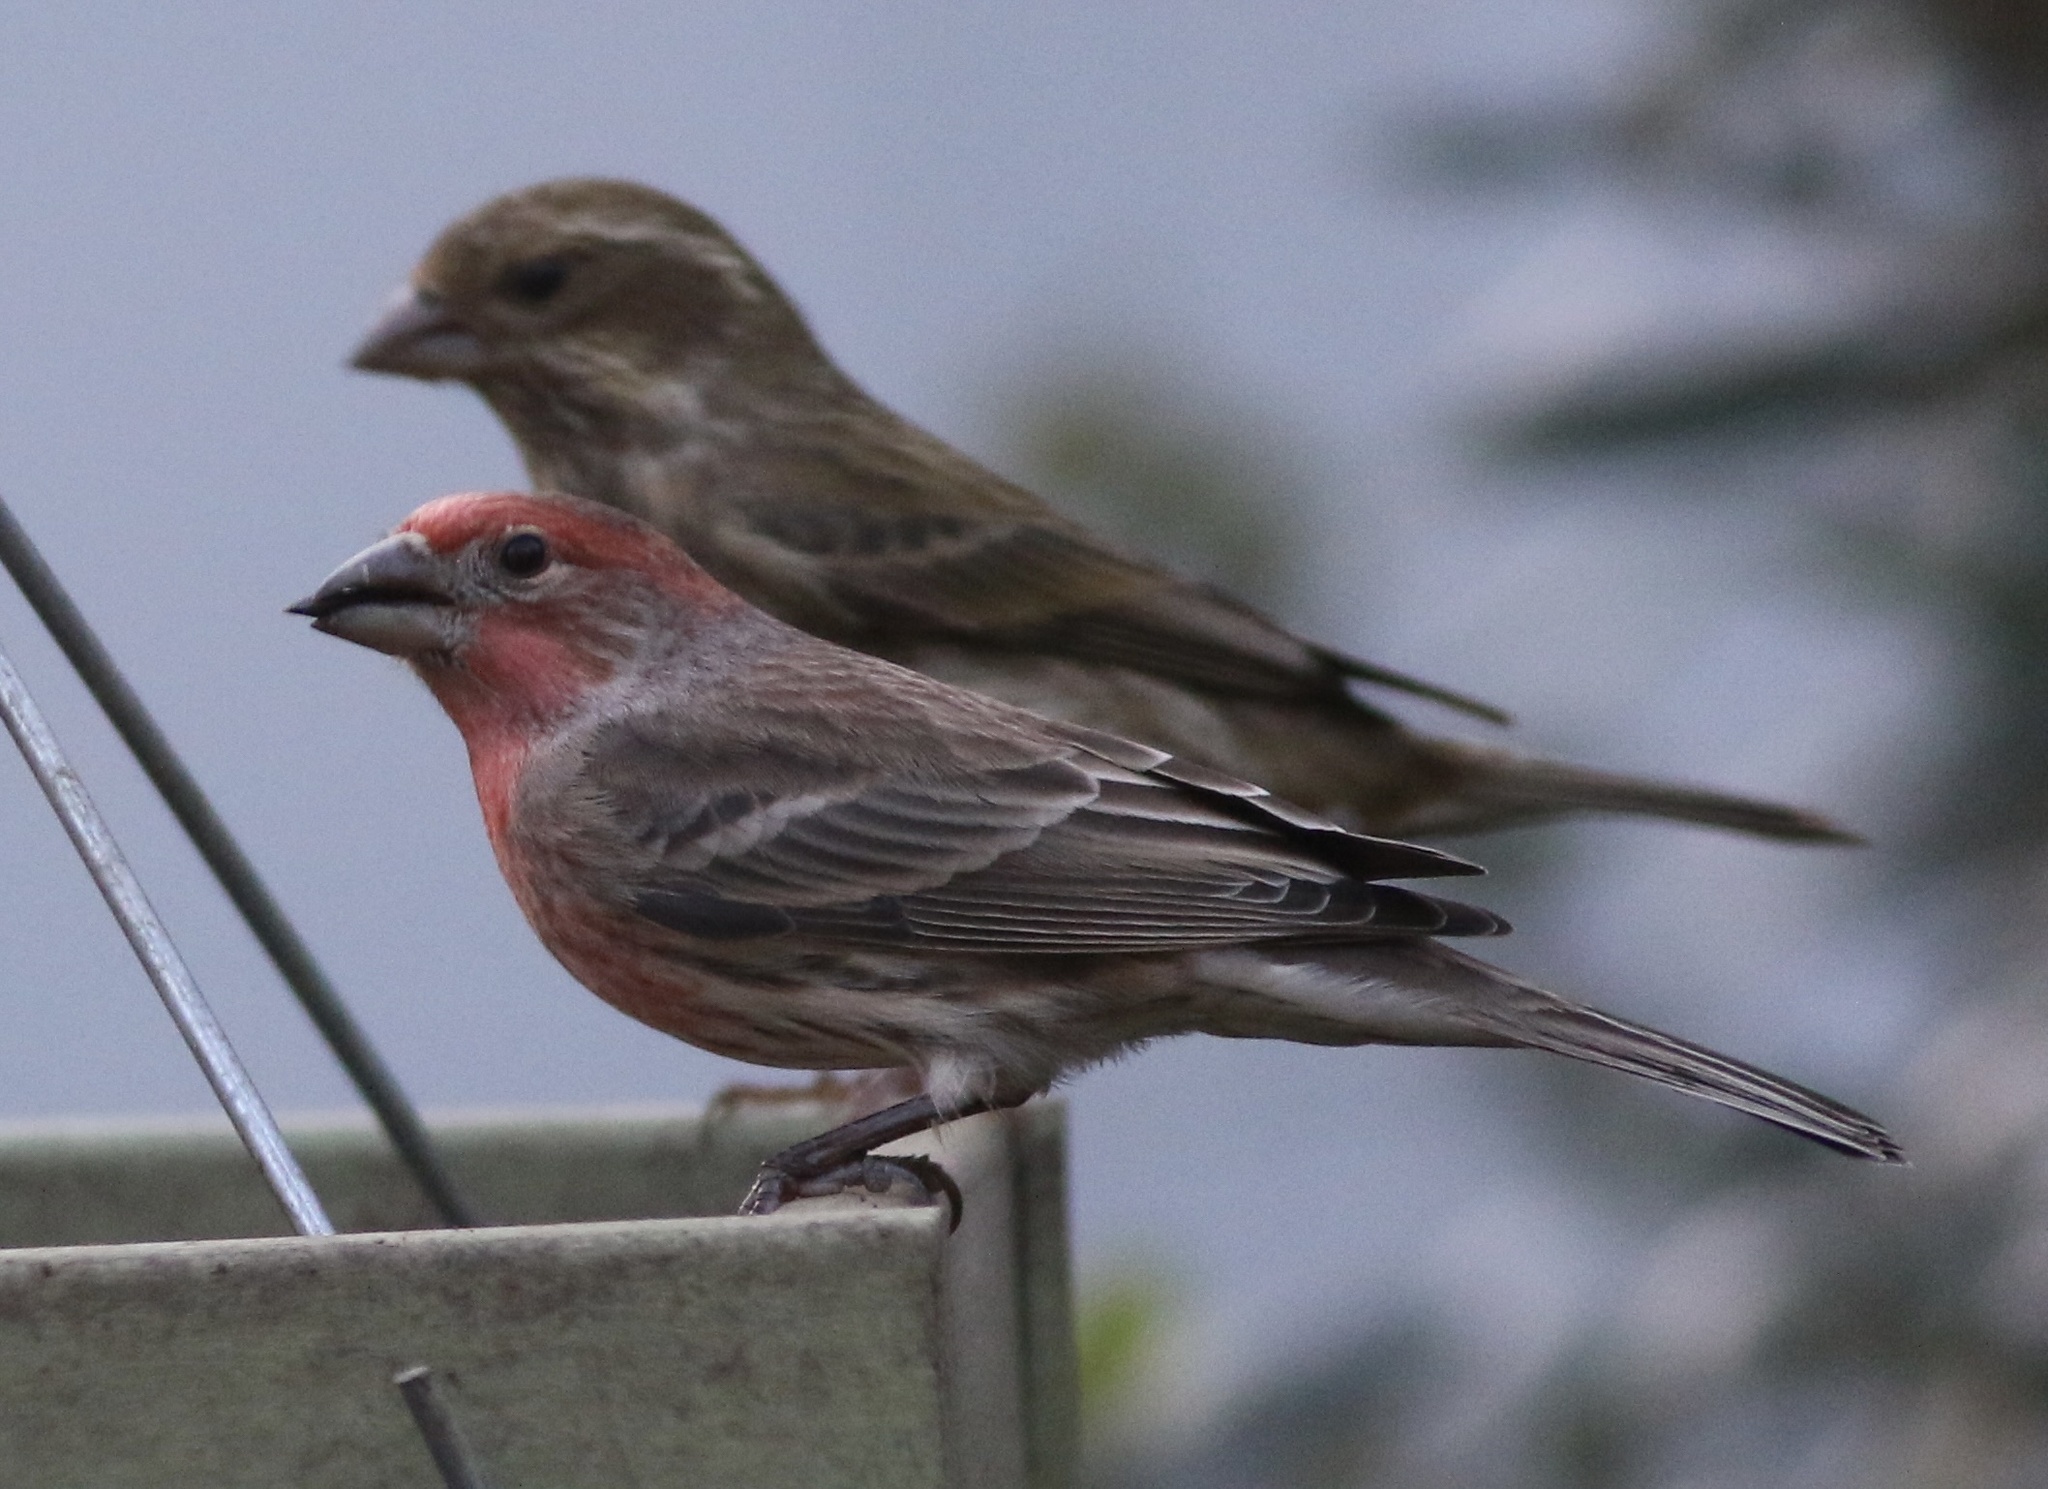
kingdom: Animalia
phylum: Chordata
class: Aves
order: Passeriformes
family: Fringillidae
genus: Haemorhous
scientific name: Haemorhous mexicanus
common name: House finch
